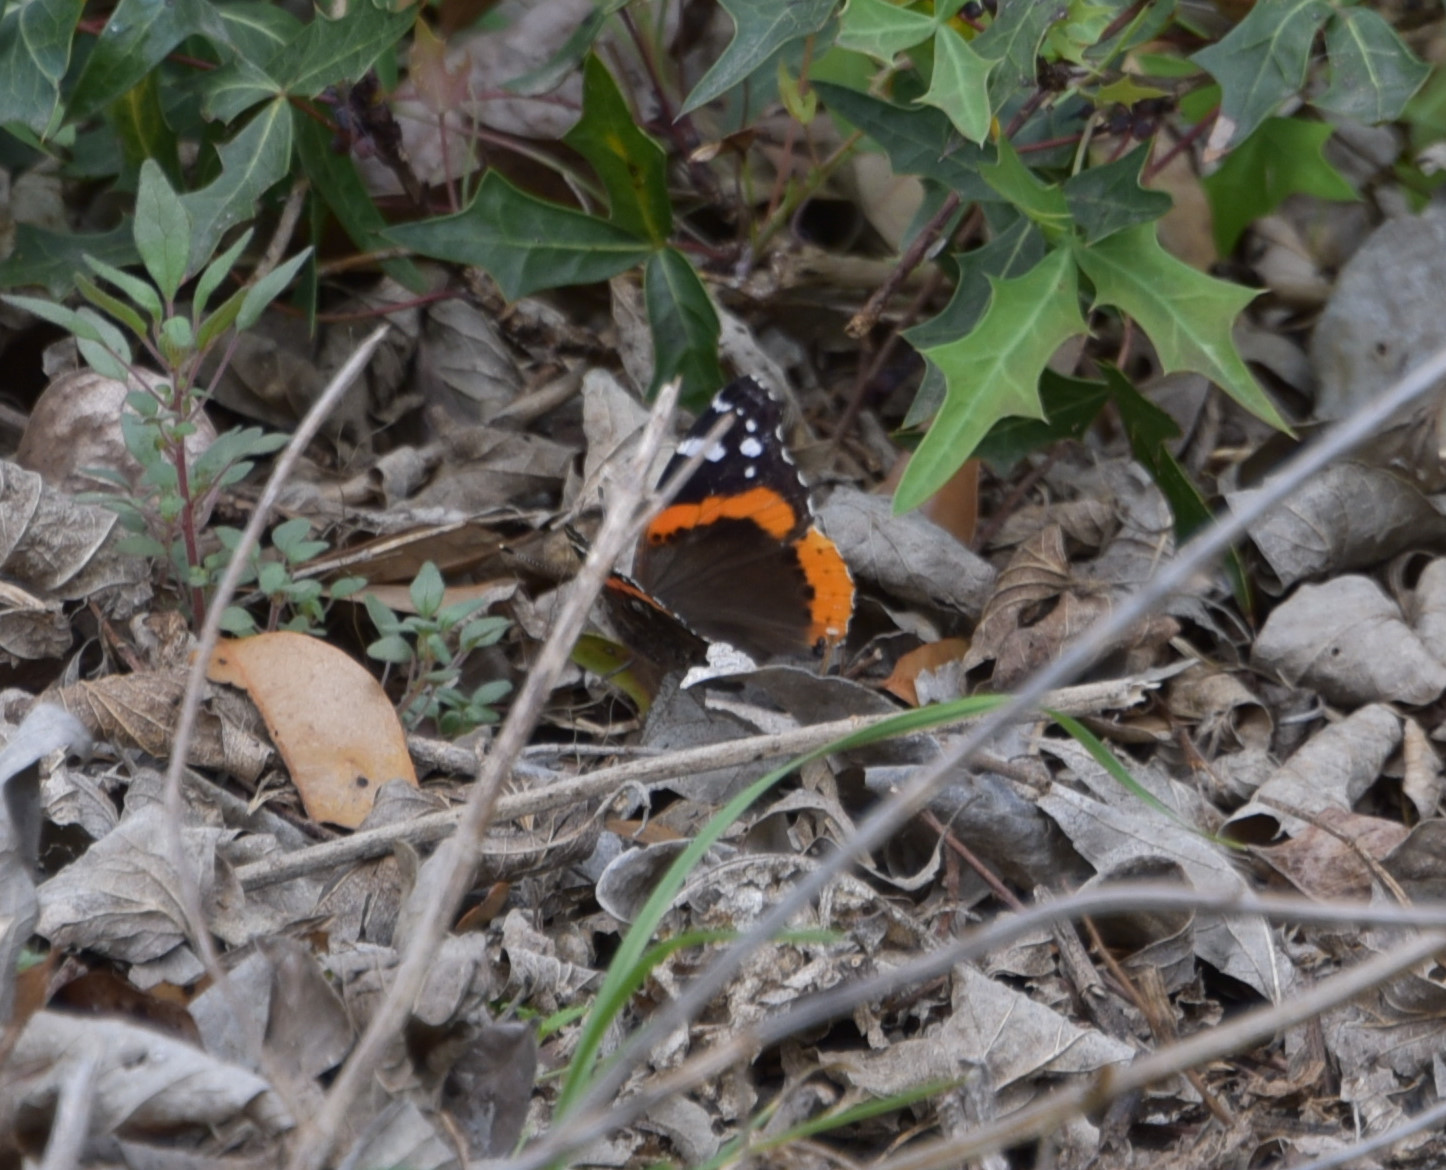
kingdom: Animalia
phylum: Arthropoda
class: Insecta
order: Lepidoptera
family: Nymphalidae
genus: Vanessa
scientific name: Vanessa atalanta
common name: Red admiral
